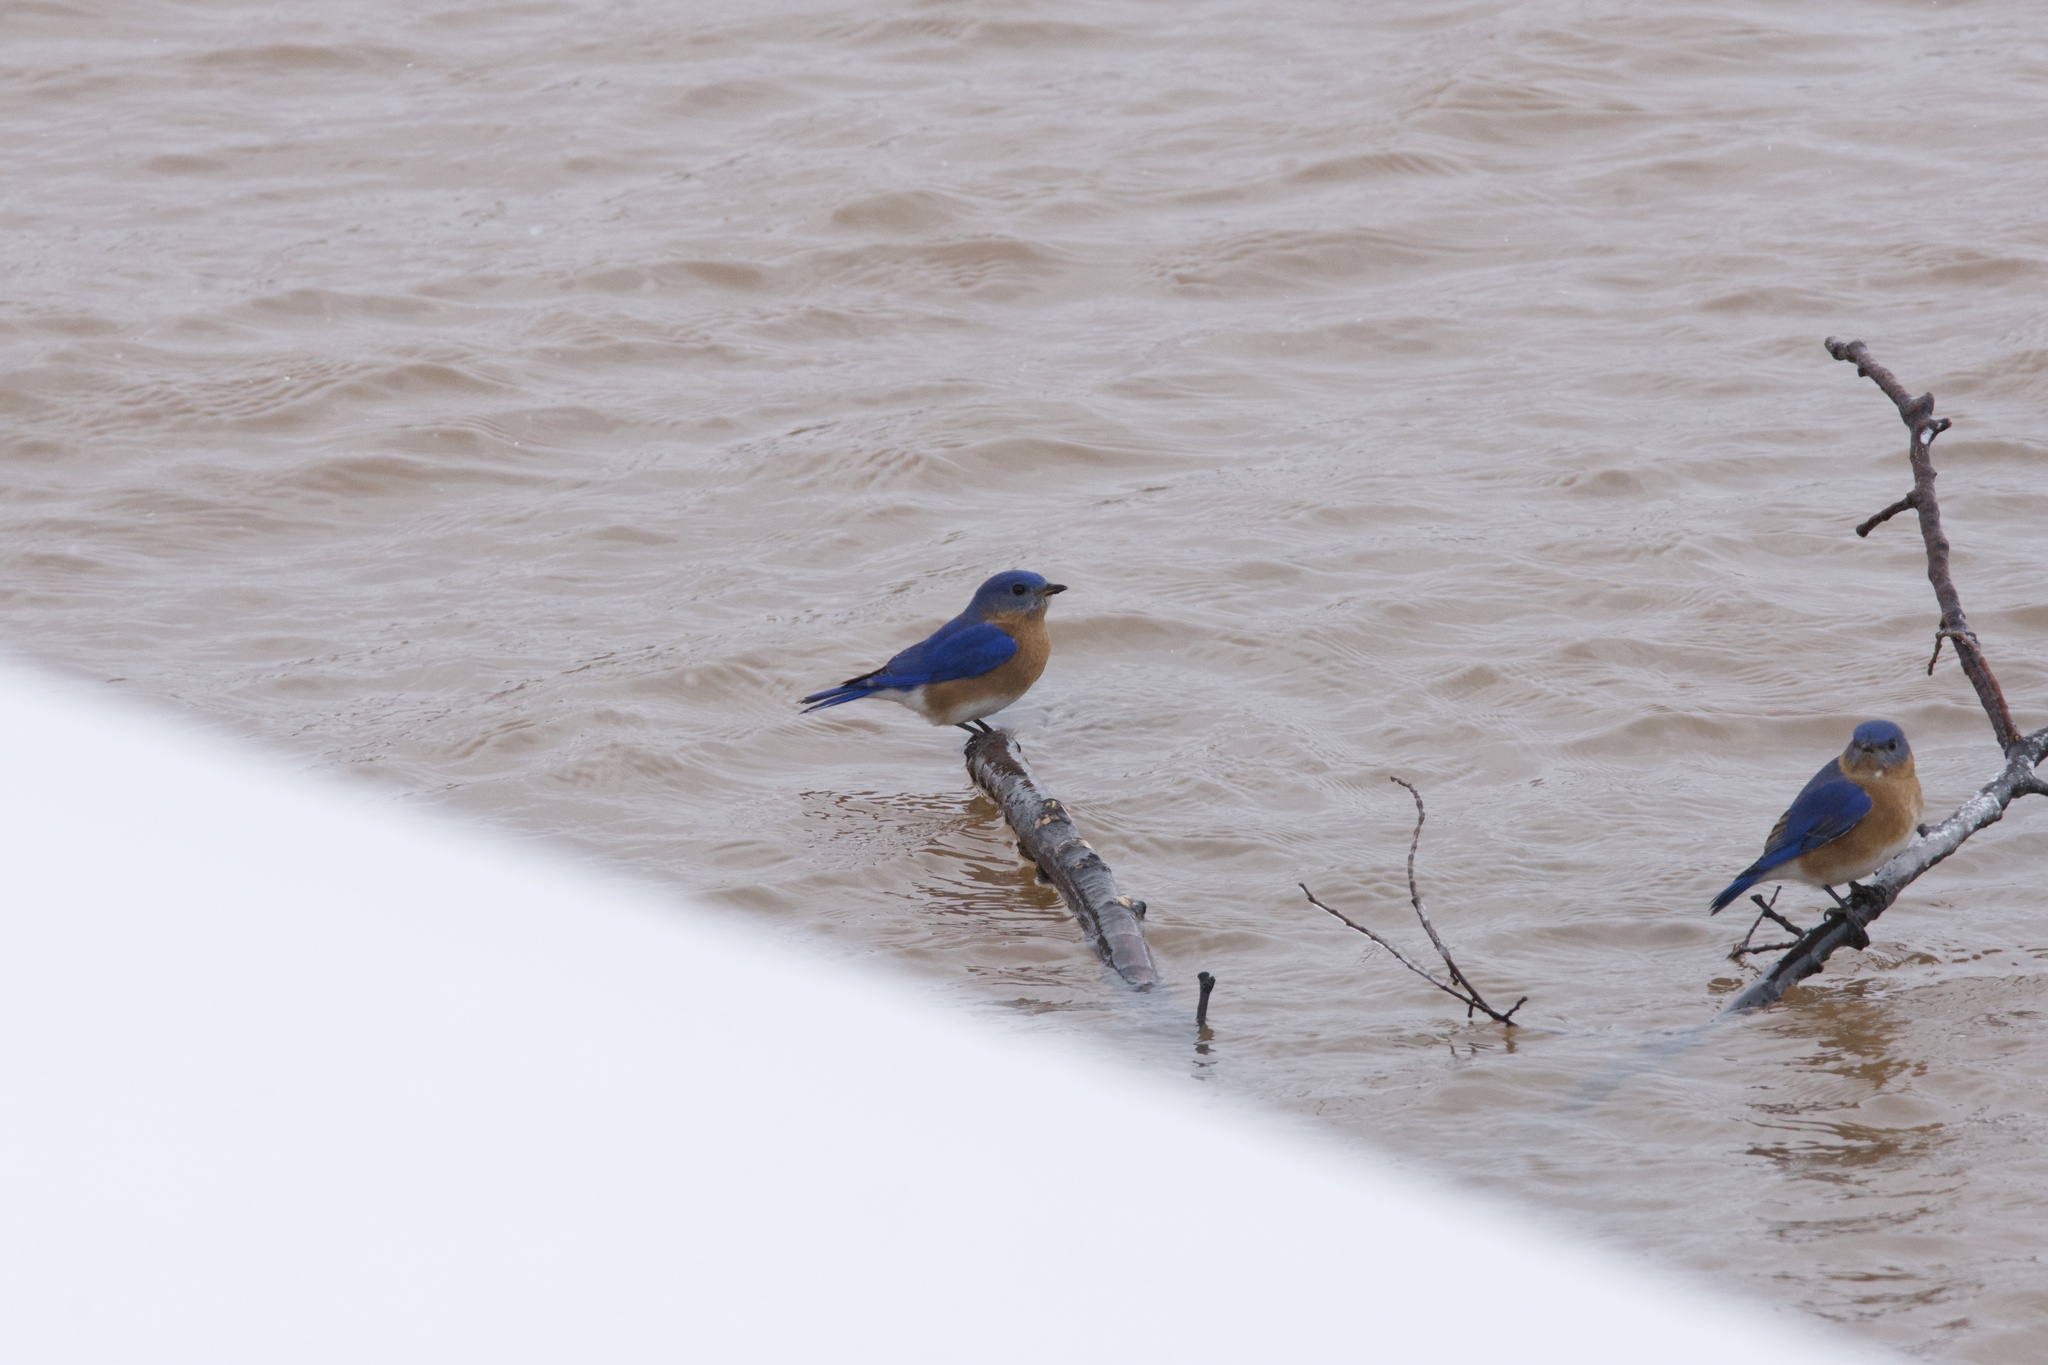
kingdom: Animalia
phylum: Chordata
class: Aves
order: Passeriformes
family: Turdidae
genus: Sialia
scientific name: Sialia sialis
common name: Eastern bluebird
